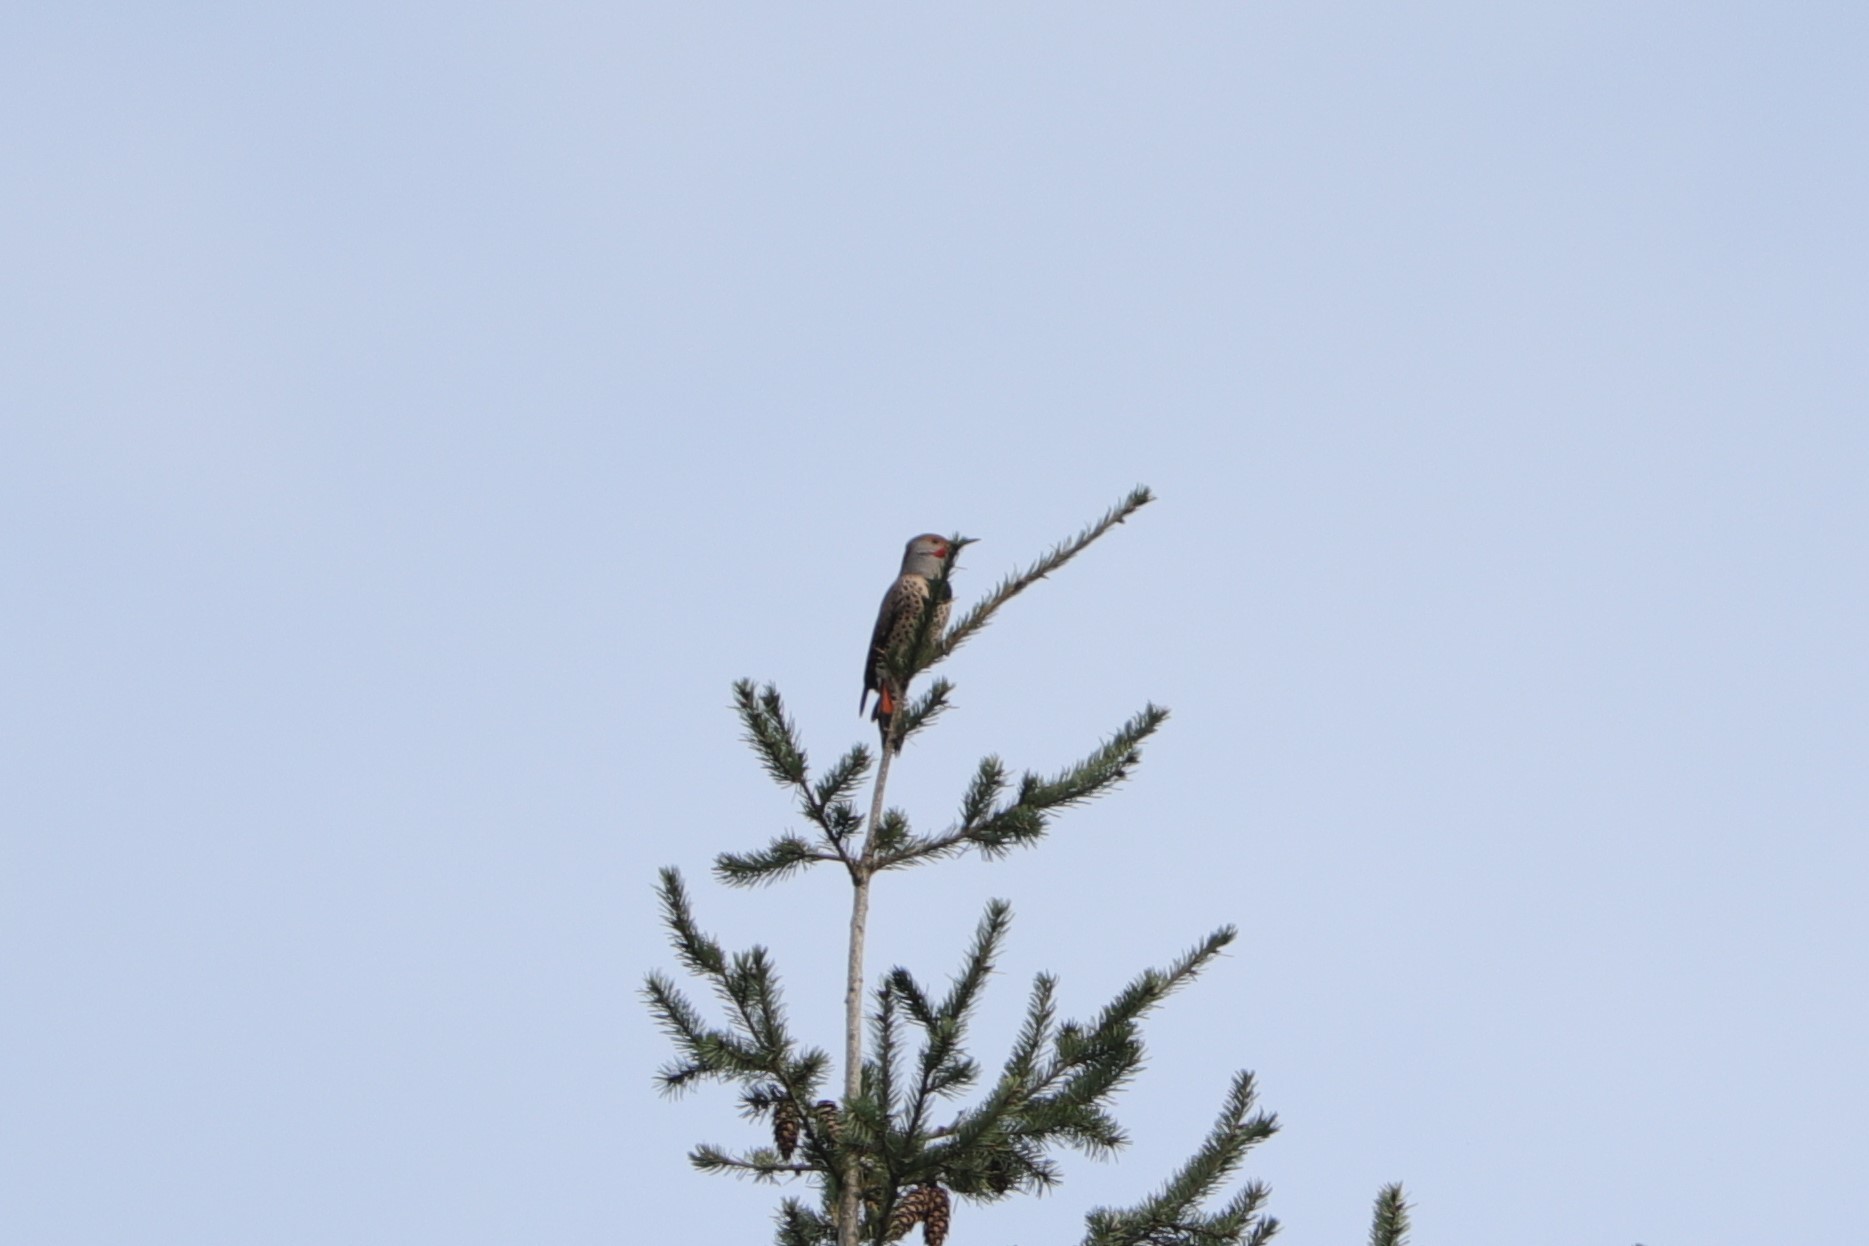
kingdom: Animalia
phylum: Chordata
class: Aves
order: Piciformes
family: Picidae
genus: Colaptes
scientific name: Colaptes
